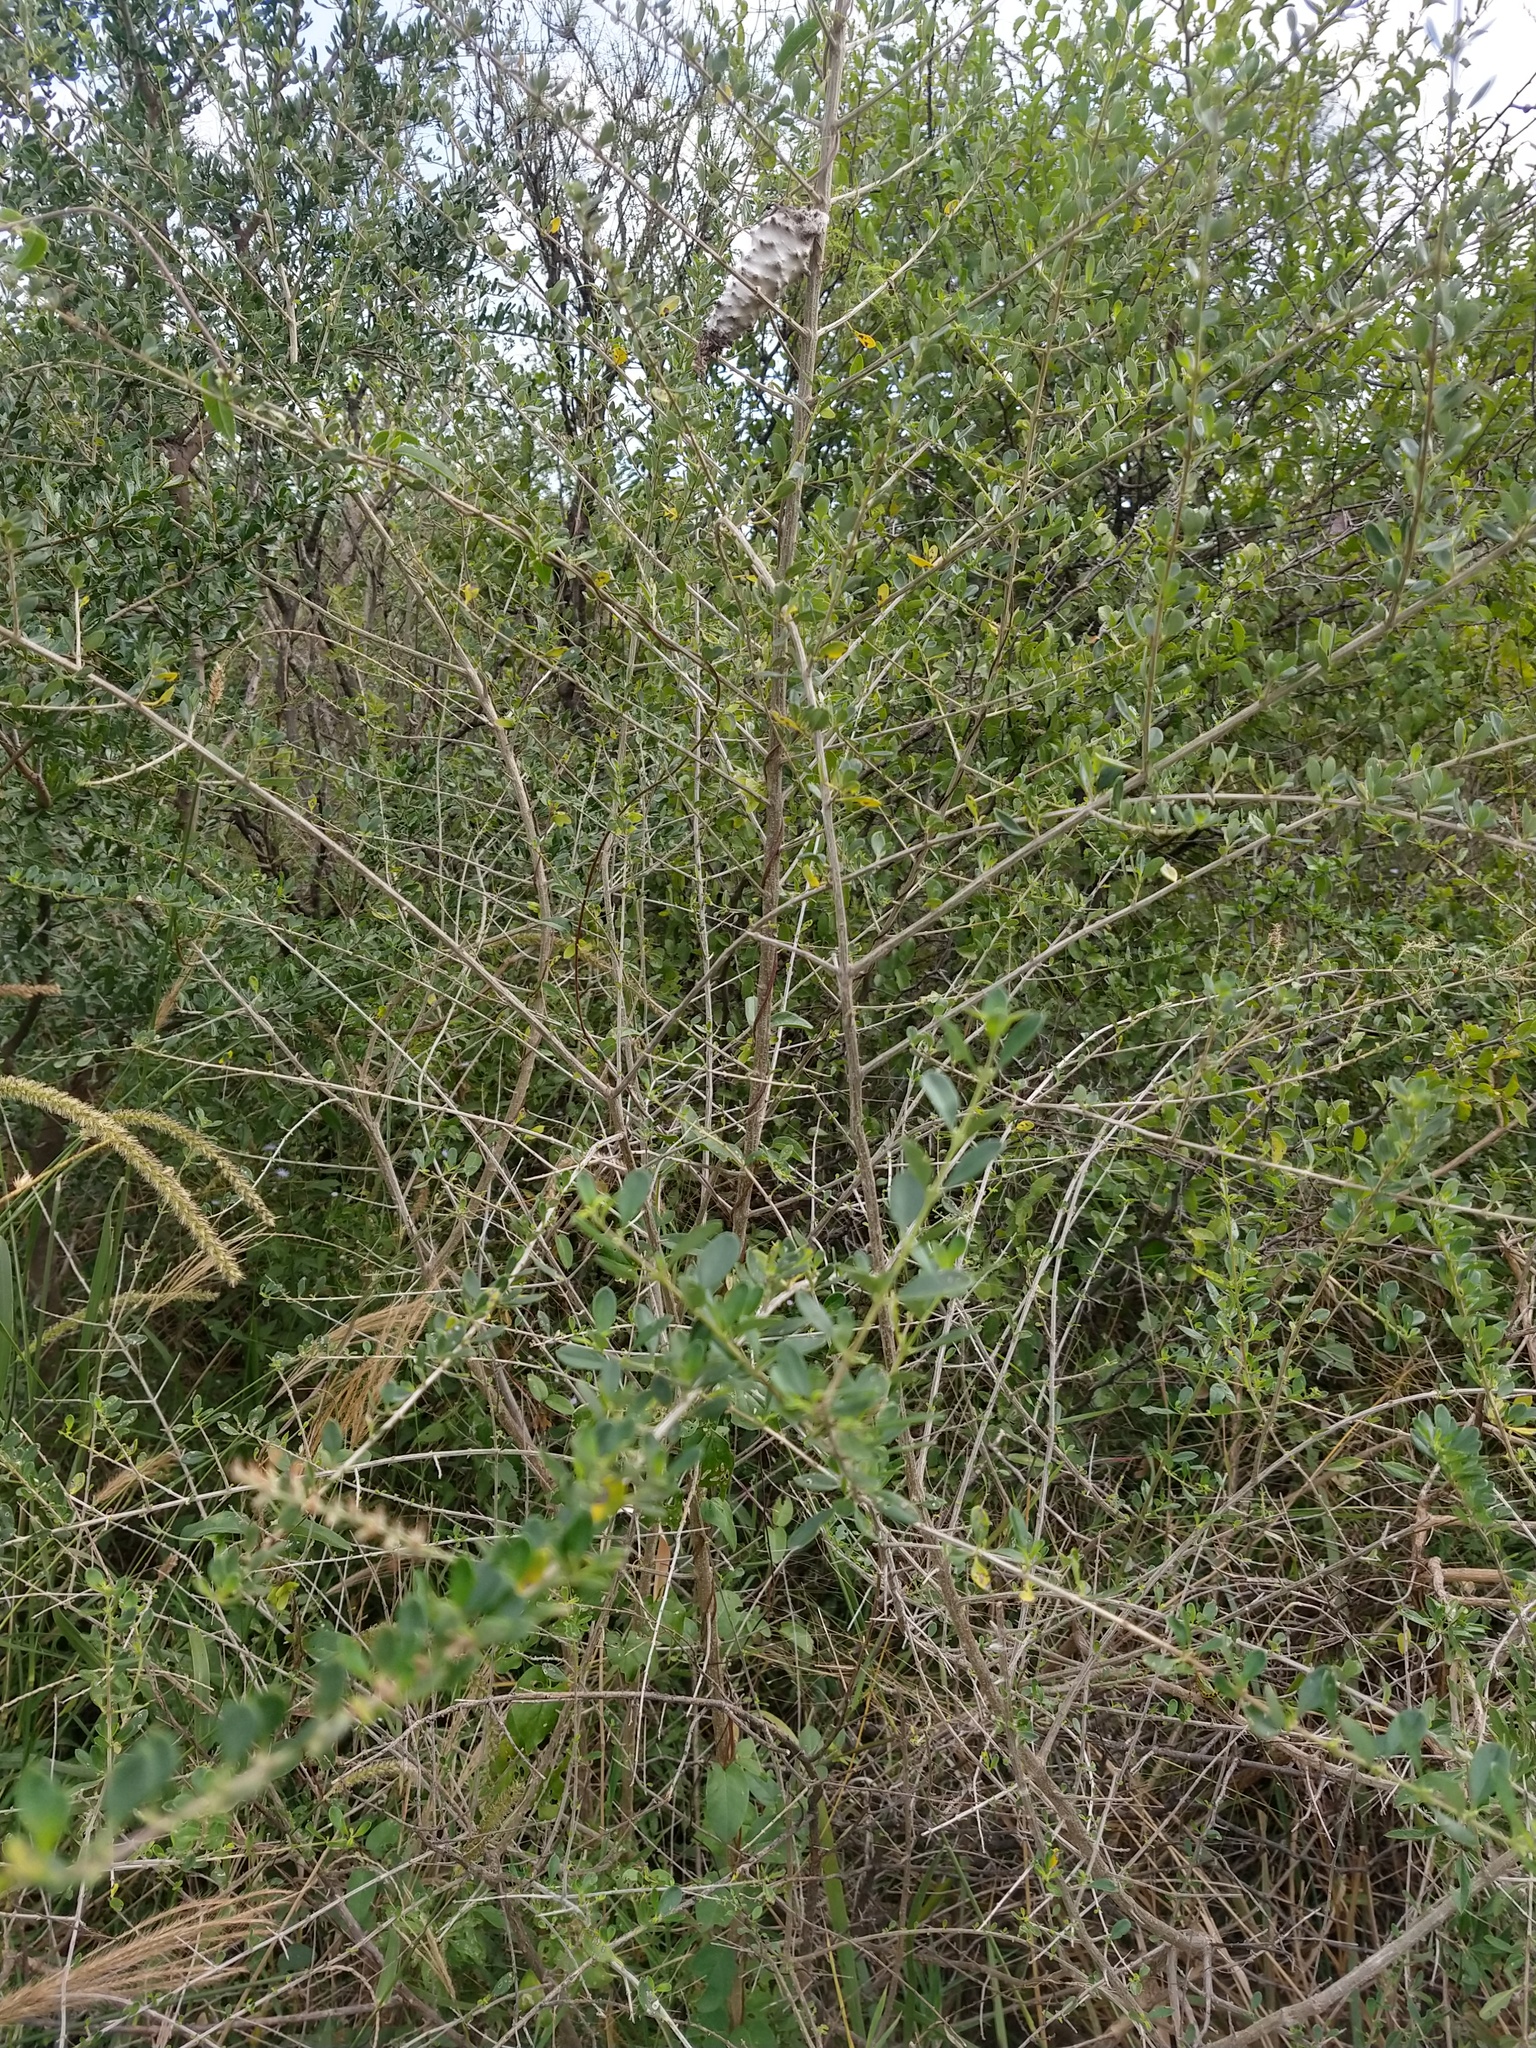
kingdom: Plantae
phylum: Tracheophyta
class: Magnoliopsida
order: Lamiales
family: Verbenaceae
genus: Aloysia
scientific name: Aloysia gratissima
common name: Common bee-brush
